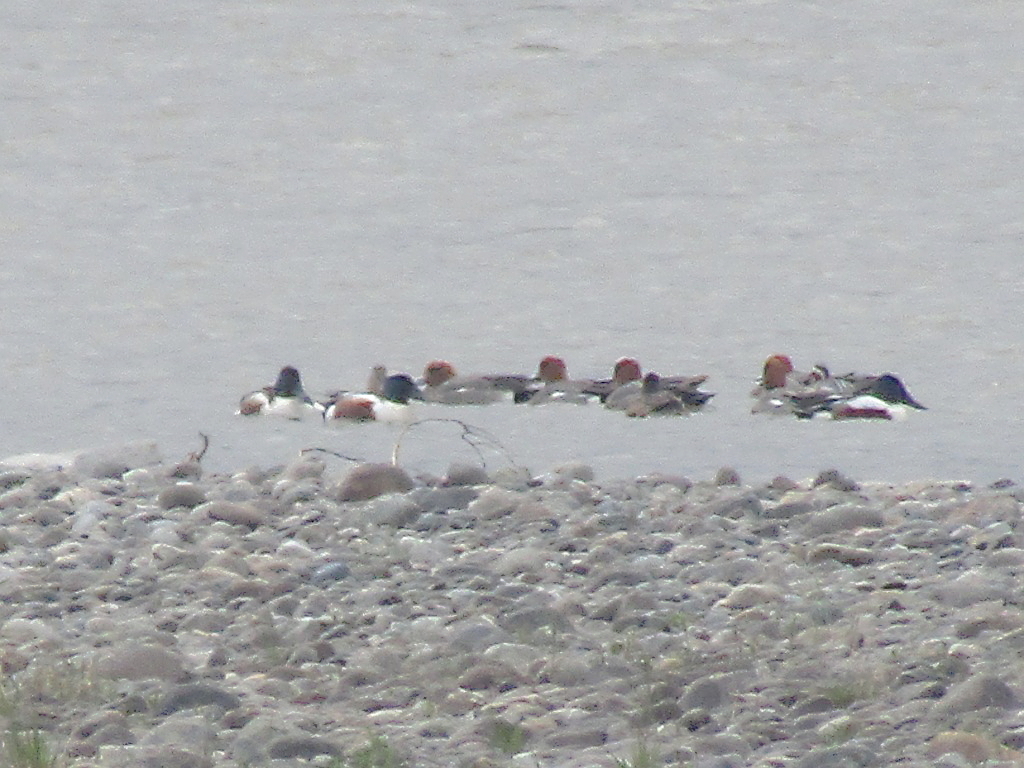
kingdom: Animalia
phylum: Chordata
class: Aves
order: Anseriformes
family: Anatidae
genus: Spatula
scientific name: Spatula clypeata
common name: Northern shoveler
